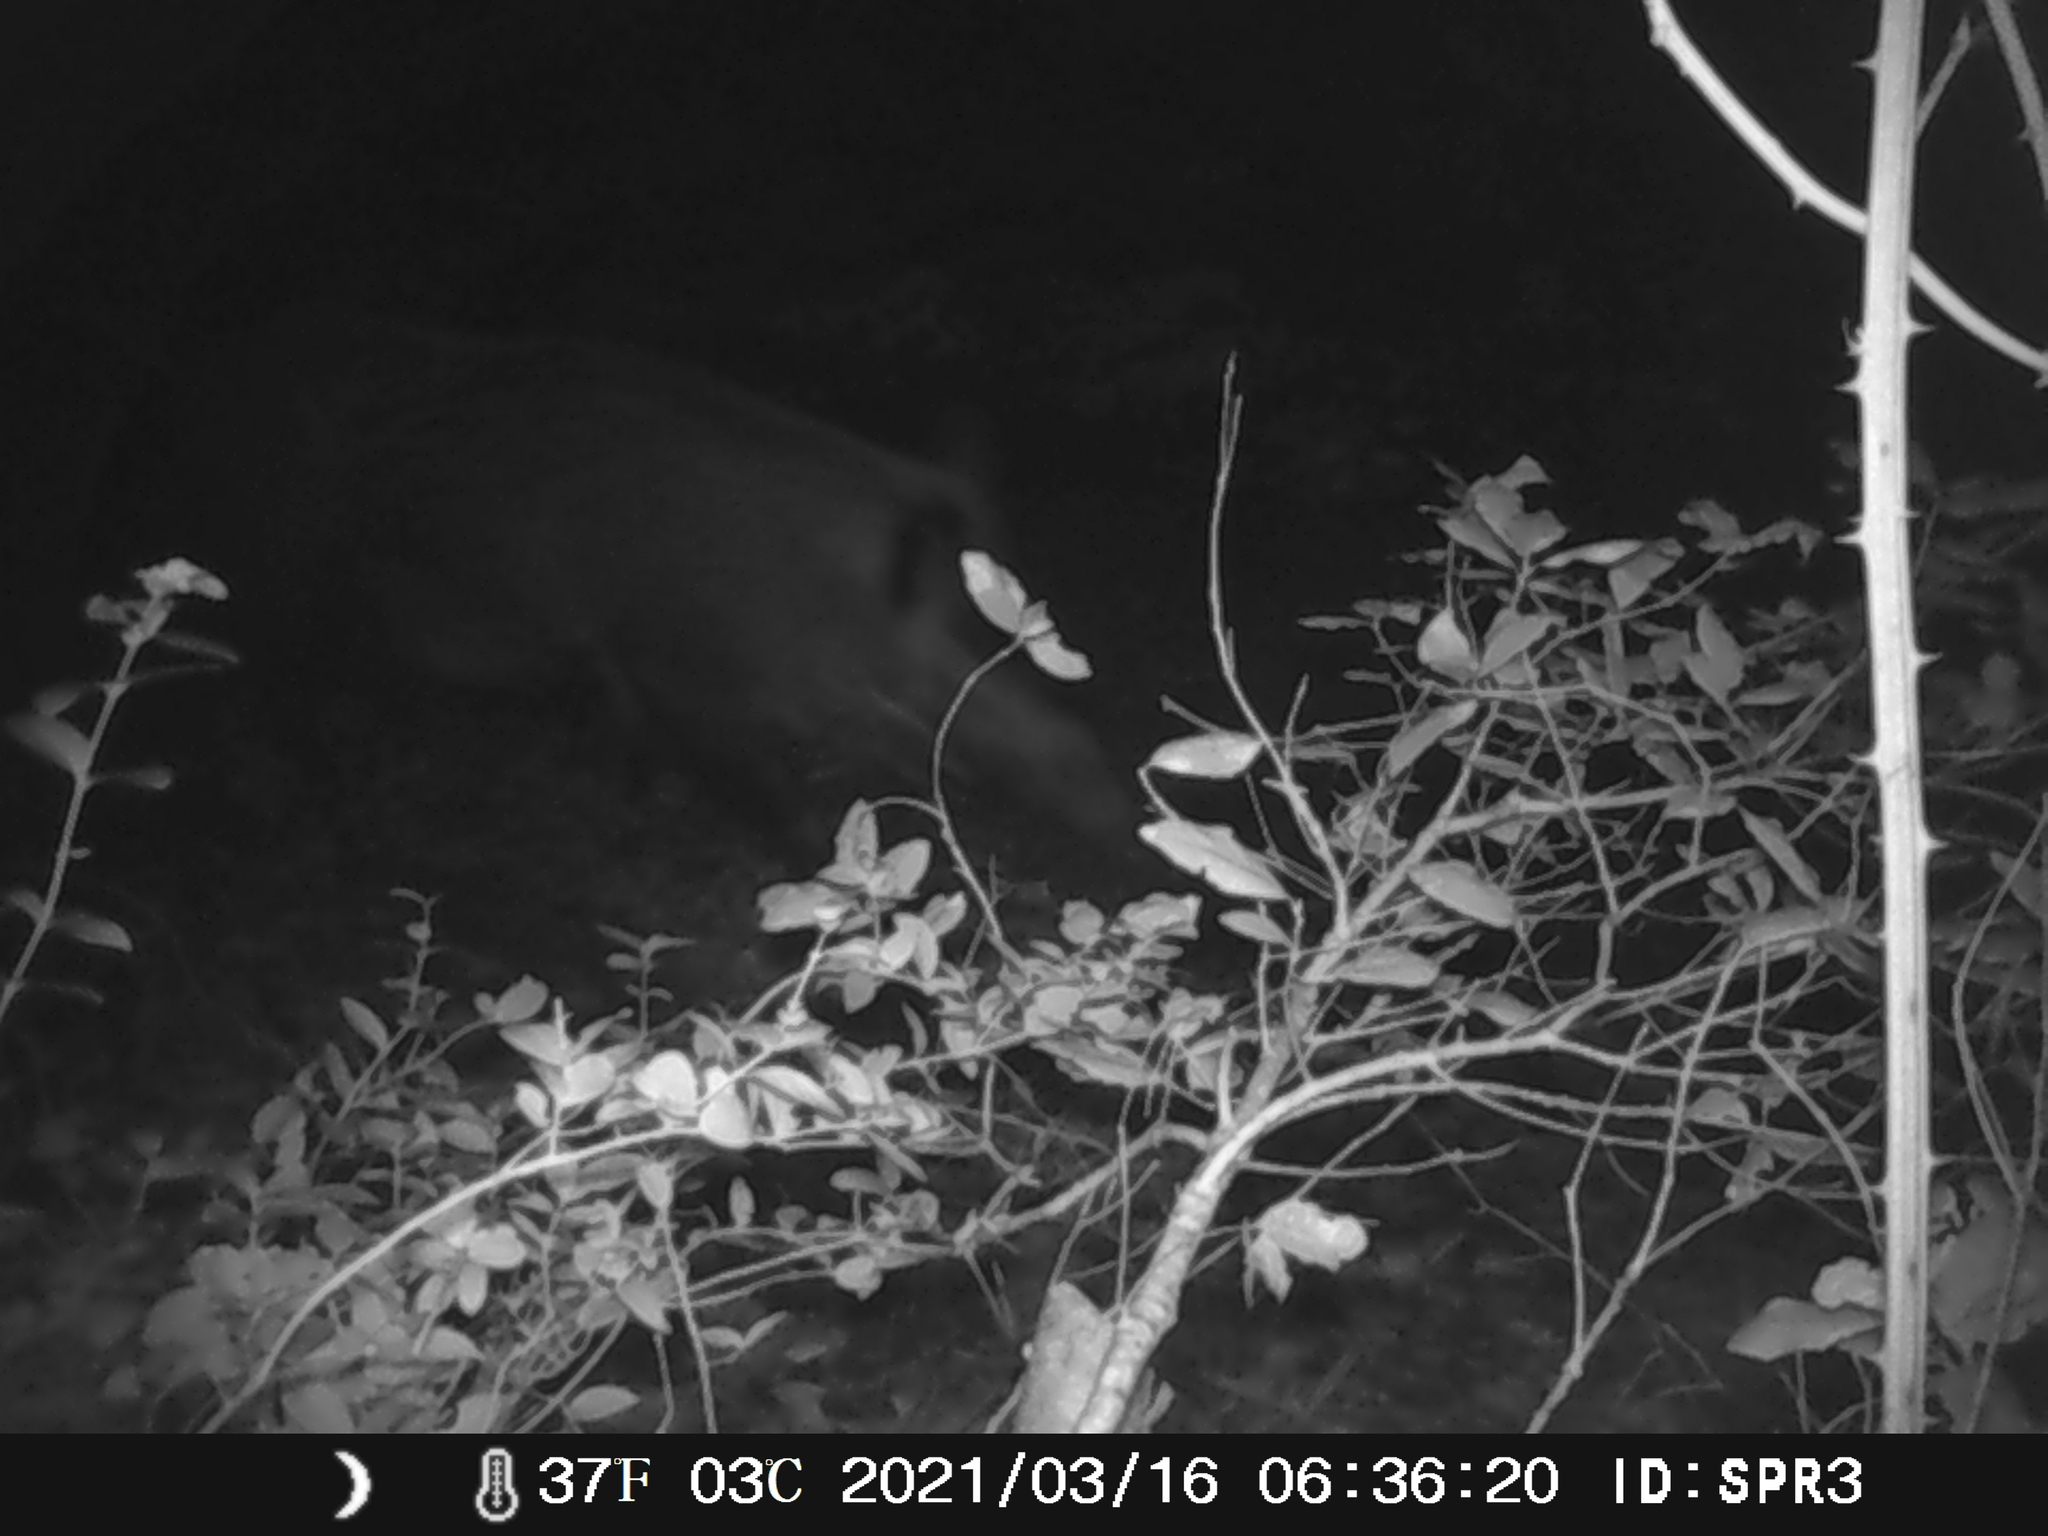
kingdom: Animalia
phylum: Chordata
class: Mammalia
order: Artiodactyla
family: Suidae
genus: Sus
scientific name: Sus scrofa
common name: Wild boar
